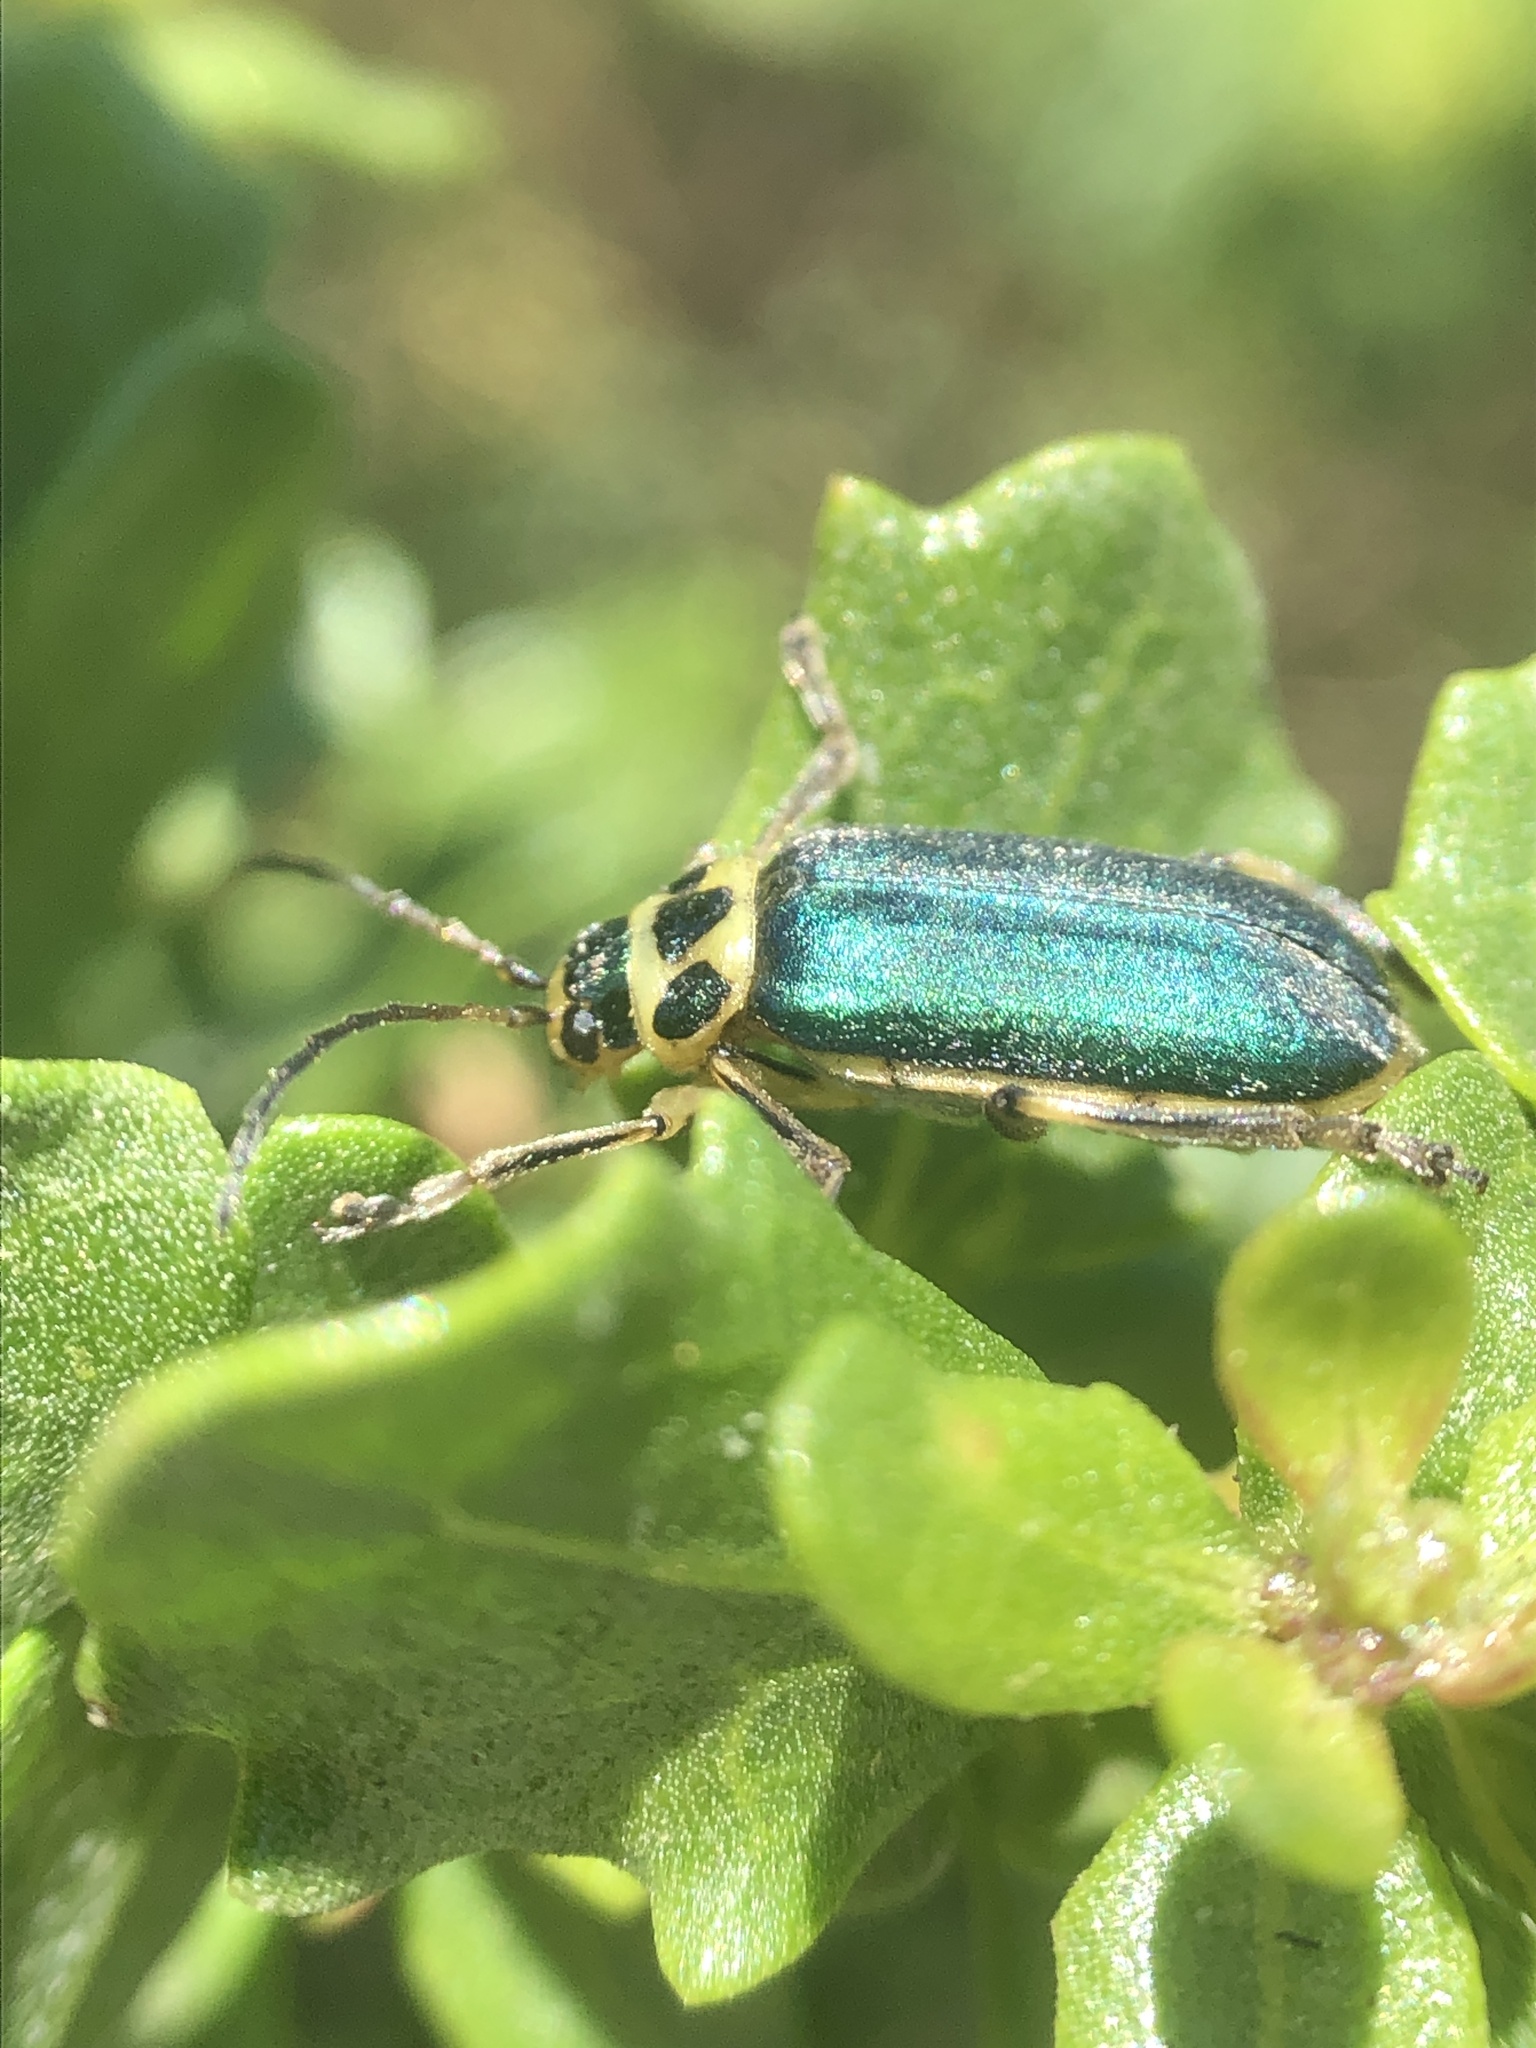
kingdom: Animalia
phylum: Arthropoda
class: Insecta
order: Coleoptera
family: Chrysomelidae
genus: Trirhabda
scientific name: Trirhabda flavolimbata
